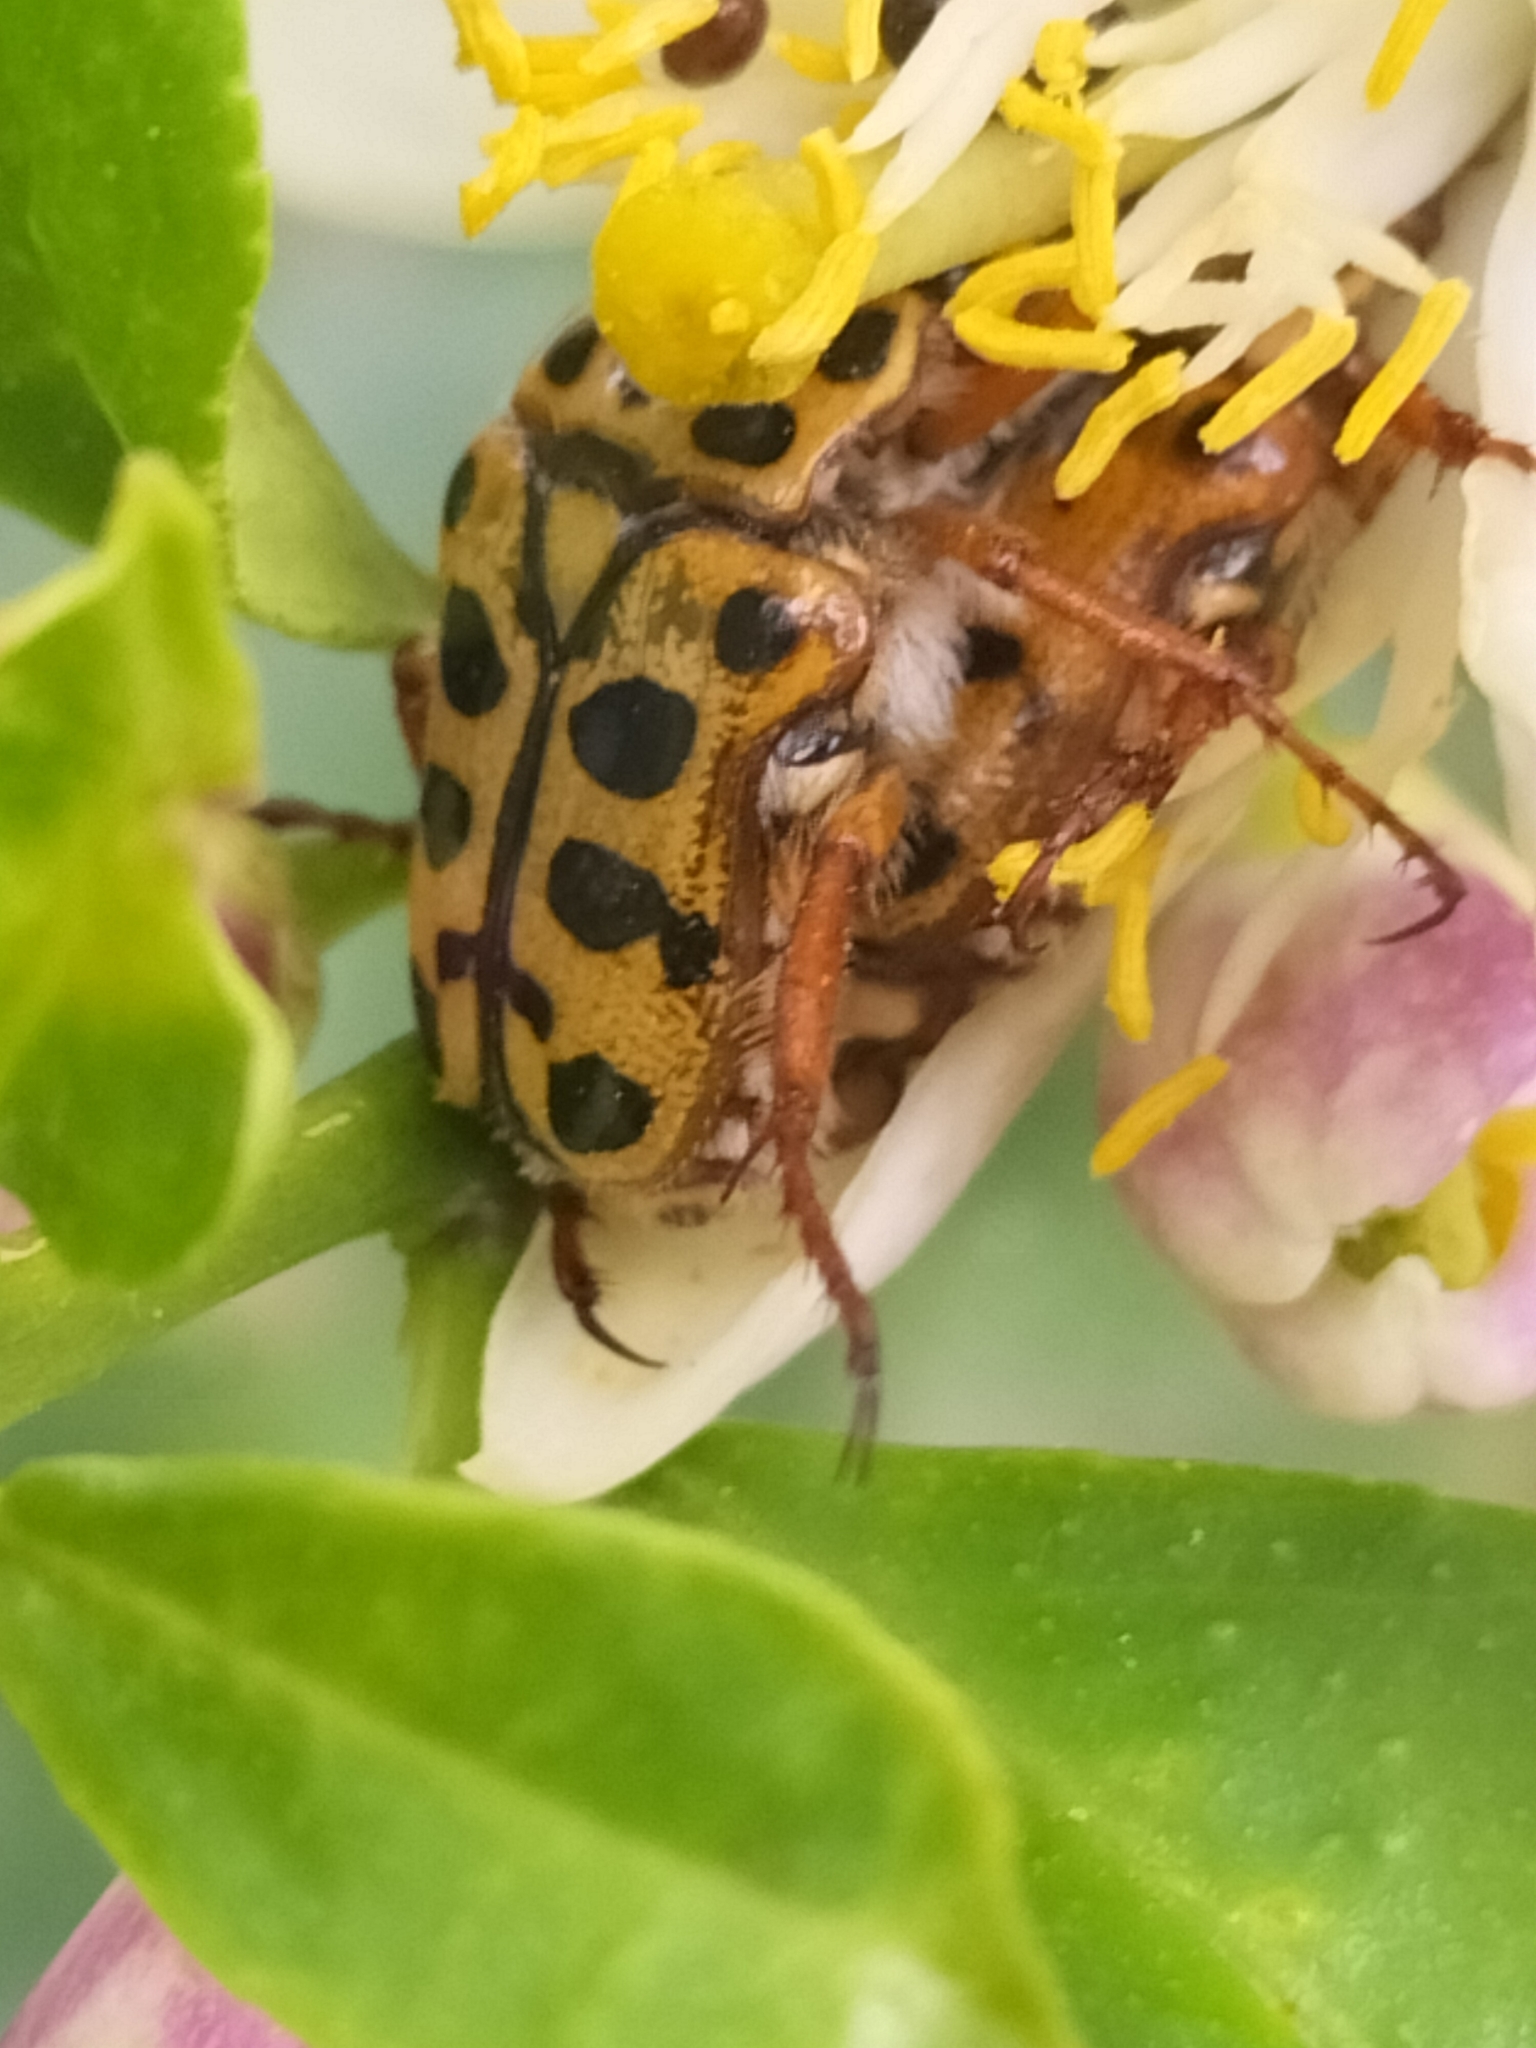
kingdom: Animalia
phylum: Arthropoda
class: Insecta
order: Coleoptera
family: Scarabaeidae
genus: Neorrhina
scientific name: Neorrhina punctatum
